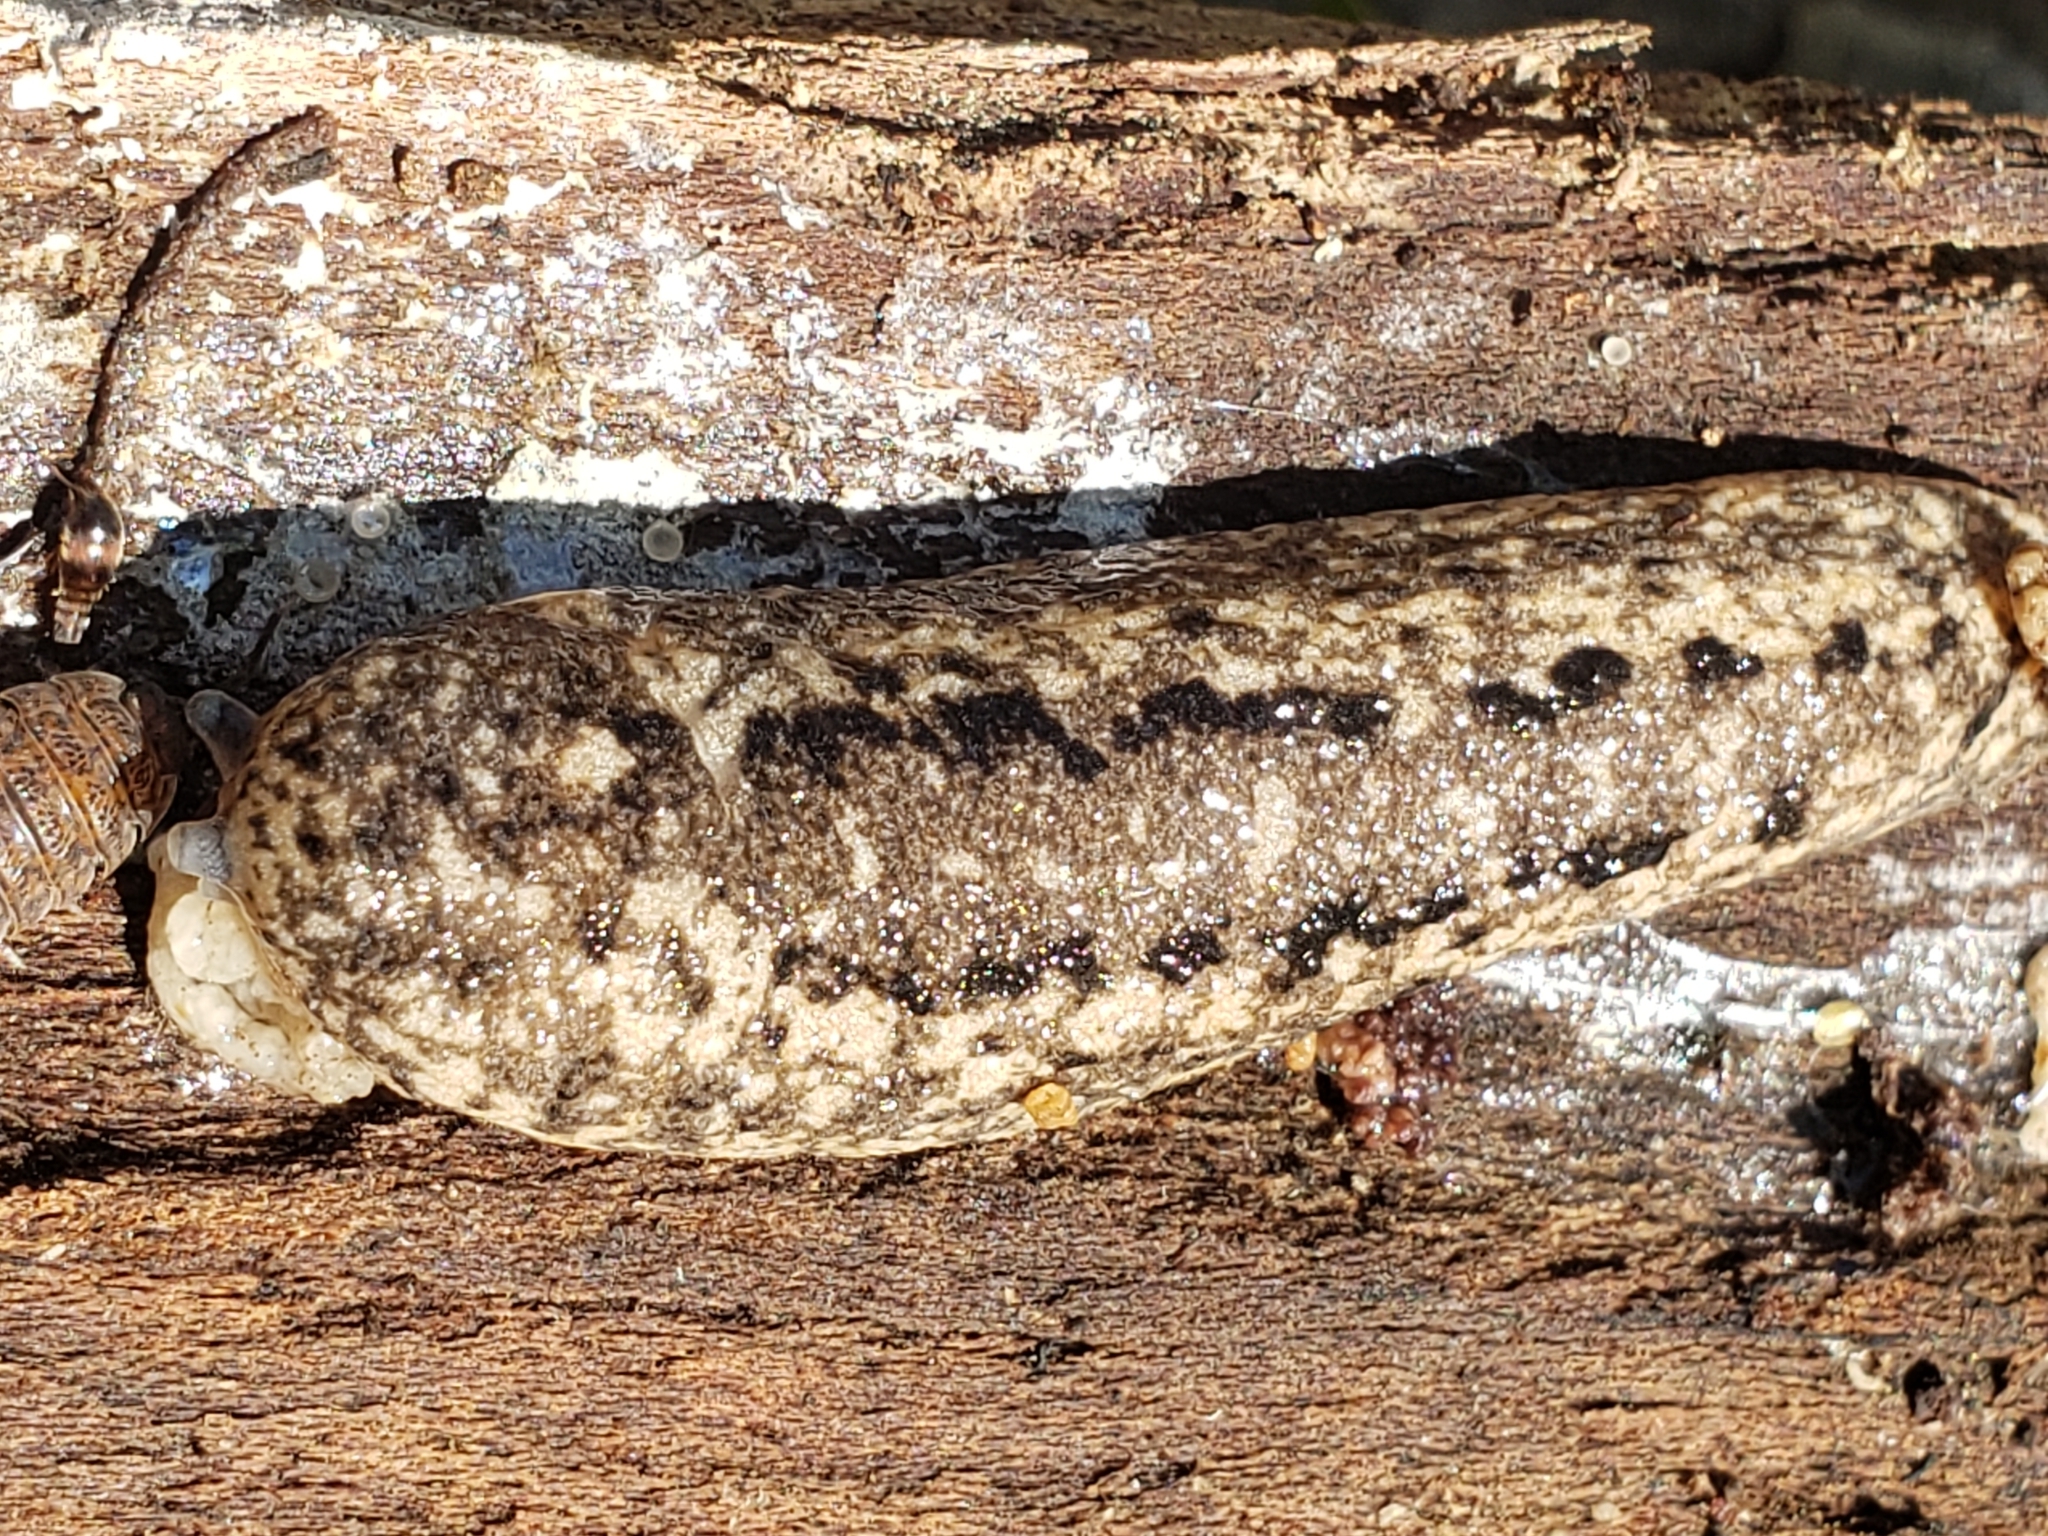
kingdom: Animalia
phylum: Mollusca
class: Gastropoda
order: Stylommatophora
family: Philomycidae
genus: Philomycus
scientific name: Philomycus carolinianus
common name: Carolina mantleslug
